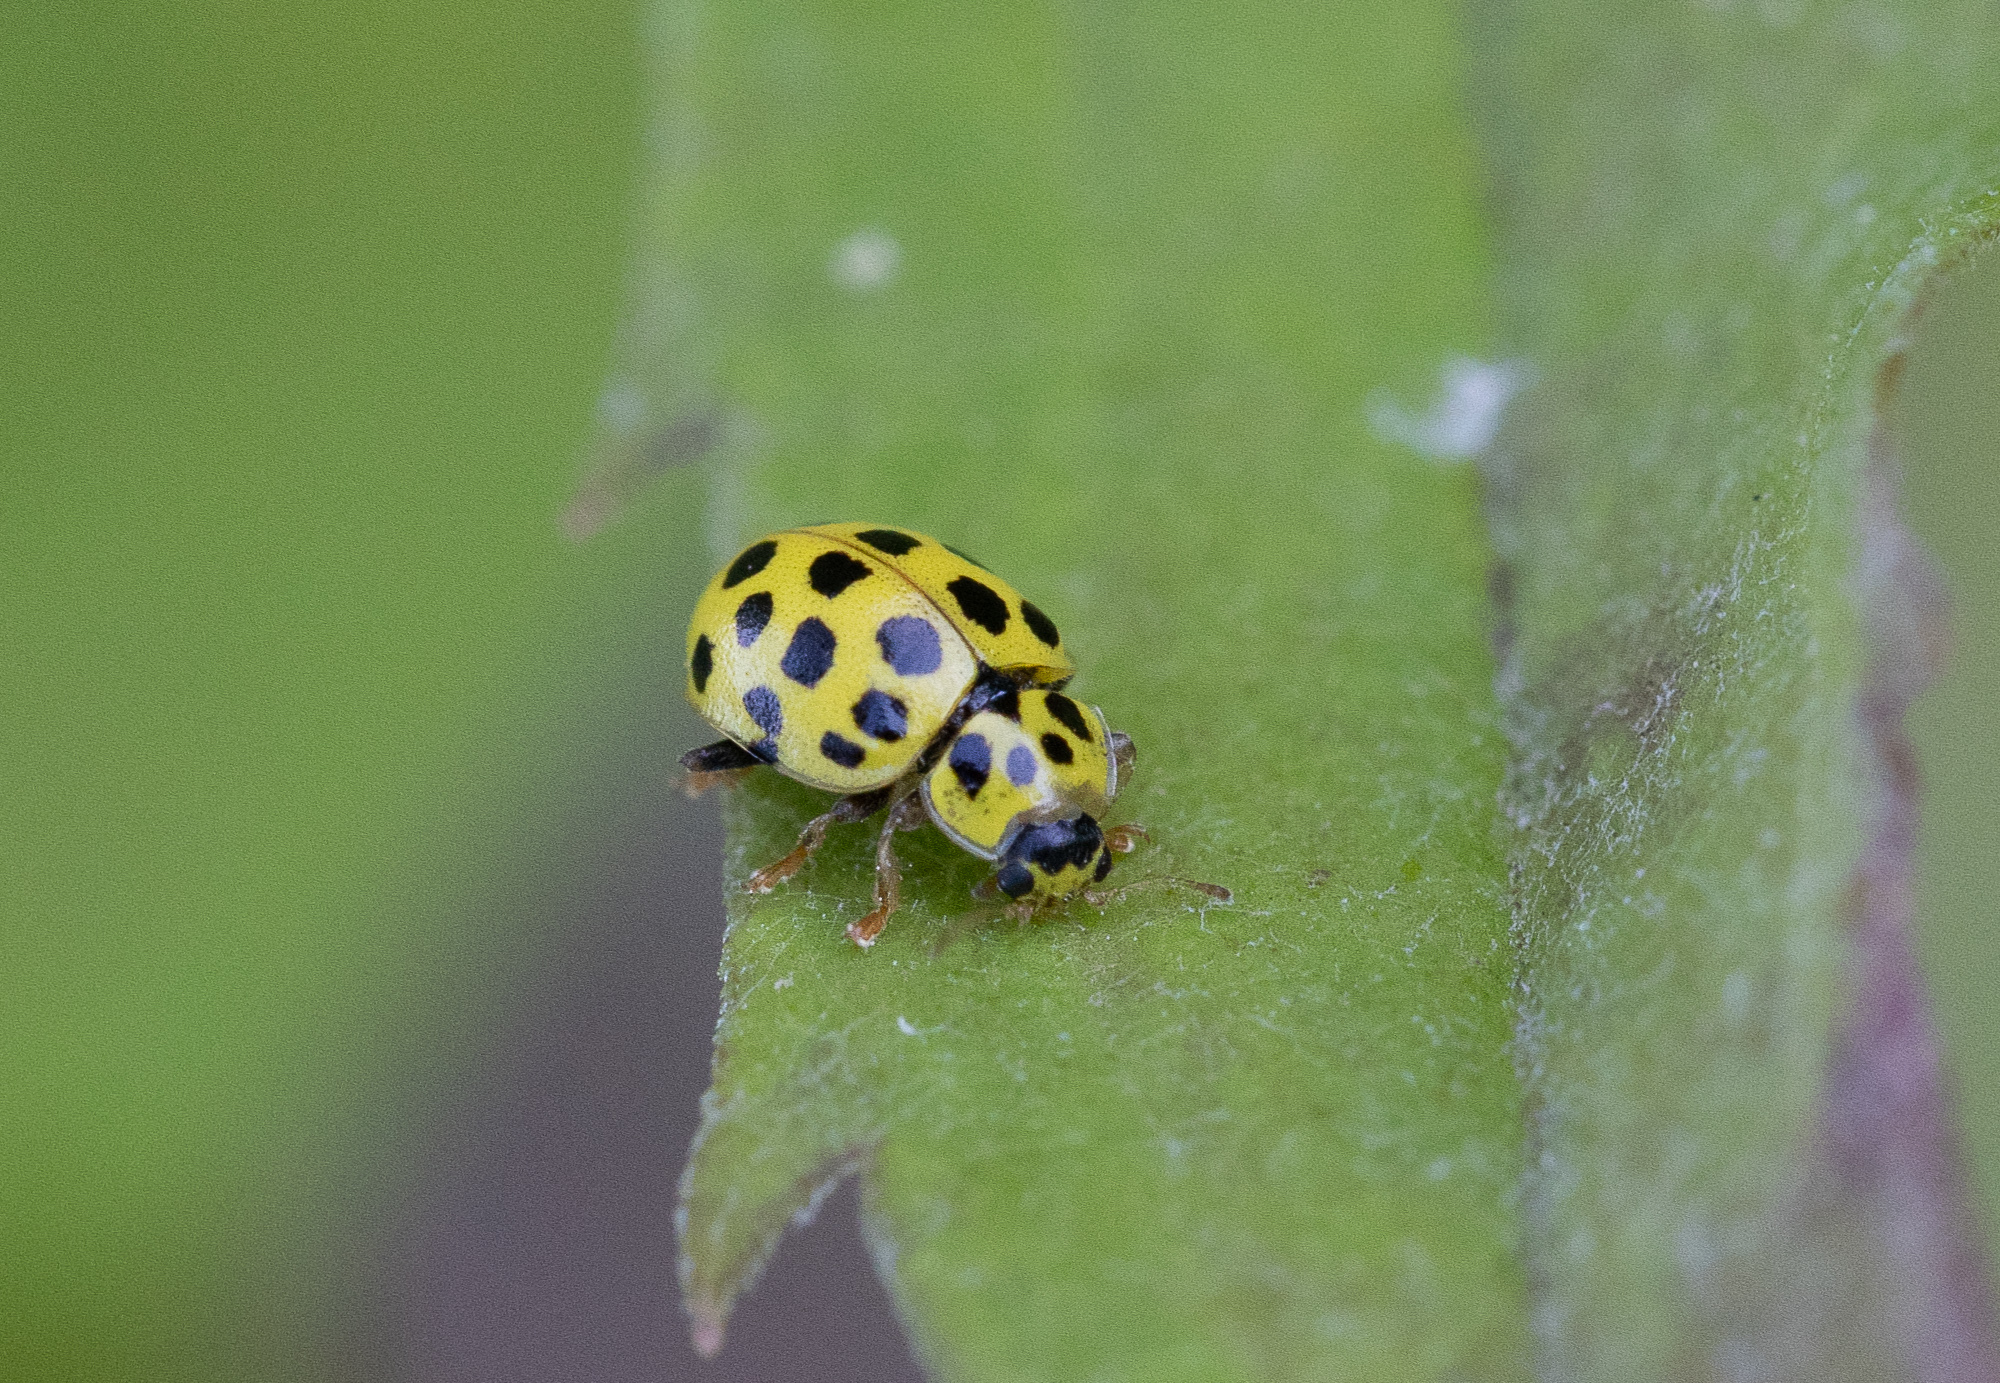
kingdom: Animalia
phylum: Arthropoda
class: Insecta
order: Coleoptera
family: Coccinellidae
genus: Psyllobora
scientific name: Psyllobora vigintiduopunctata
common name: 22-spot ladybird
